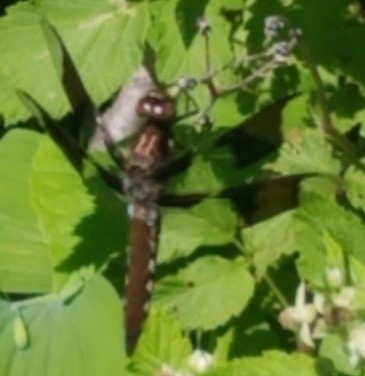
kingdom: Animalia
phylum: Arthropoda
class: Insecta
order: Odonata
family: Libellulidae
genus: Plathemis
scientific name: Plathemis lydia
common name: Common whitetail
